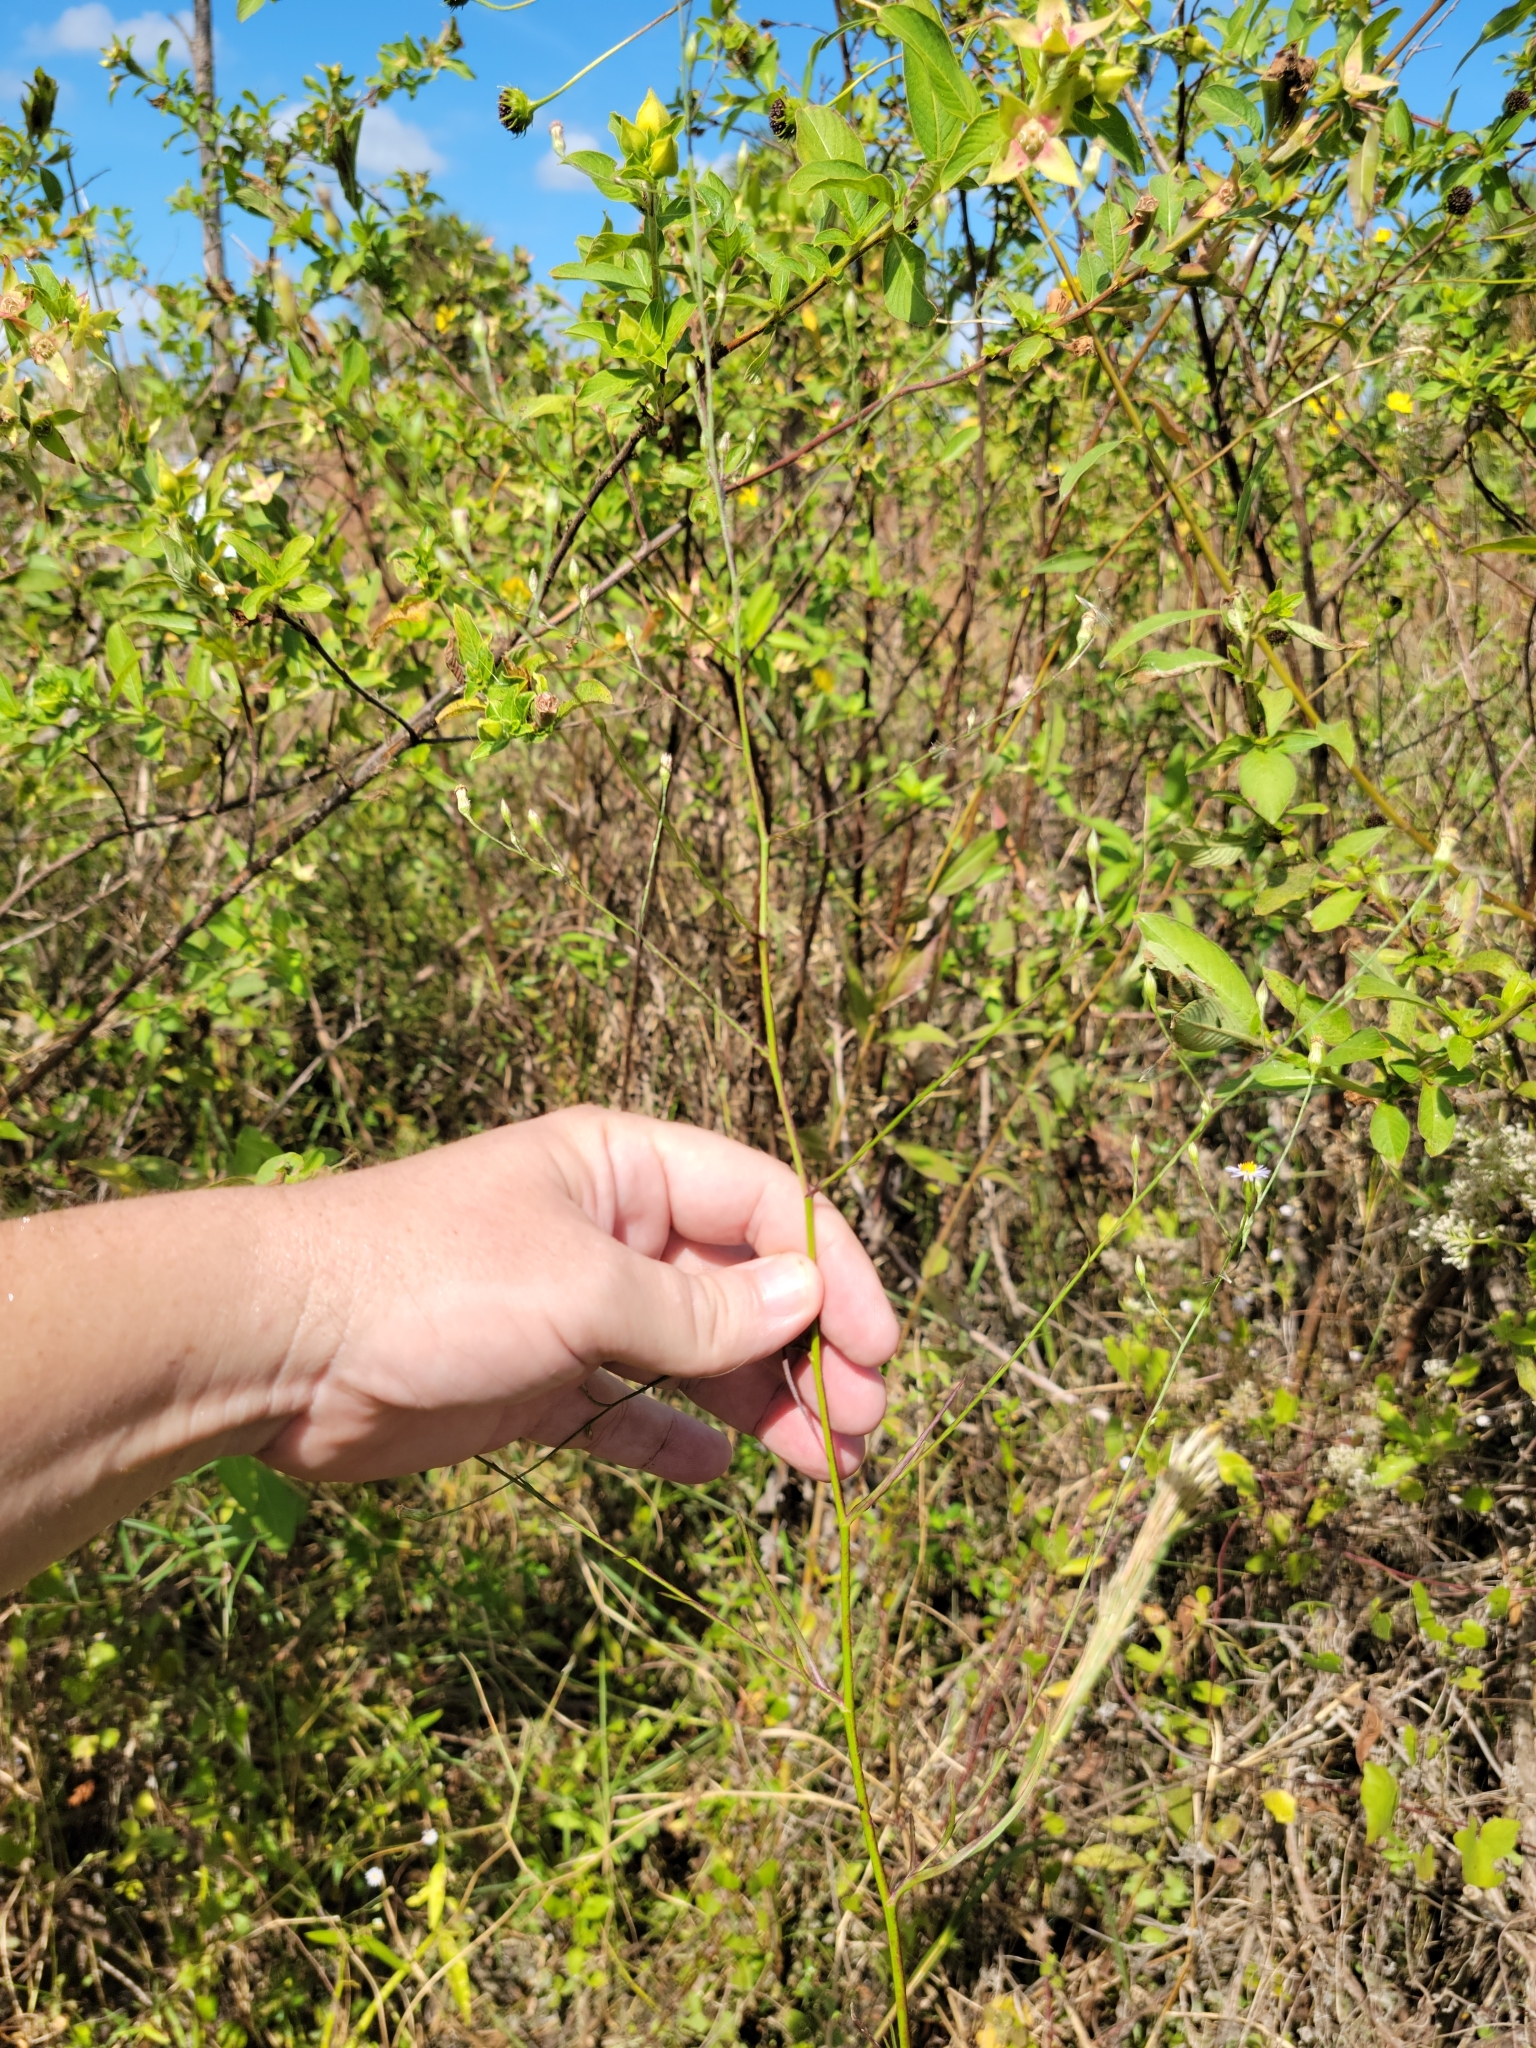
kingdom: Plantae
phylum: Tracheophyta
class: Magnoliopsida
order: Asterales
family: Asteraceae
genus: Symphyotrichum
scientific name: Symphyotrichum subulatum
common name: Annual saltmarsh aster
